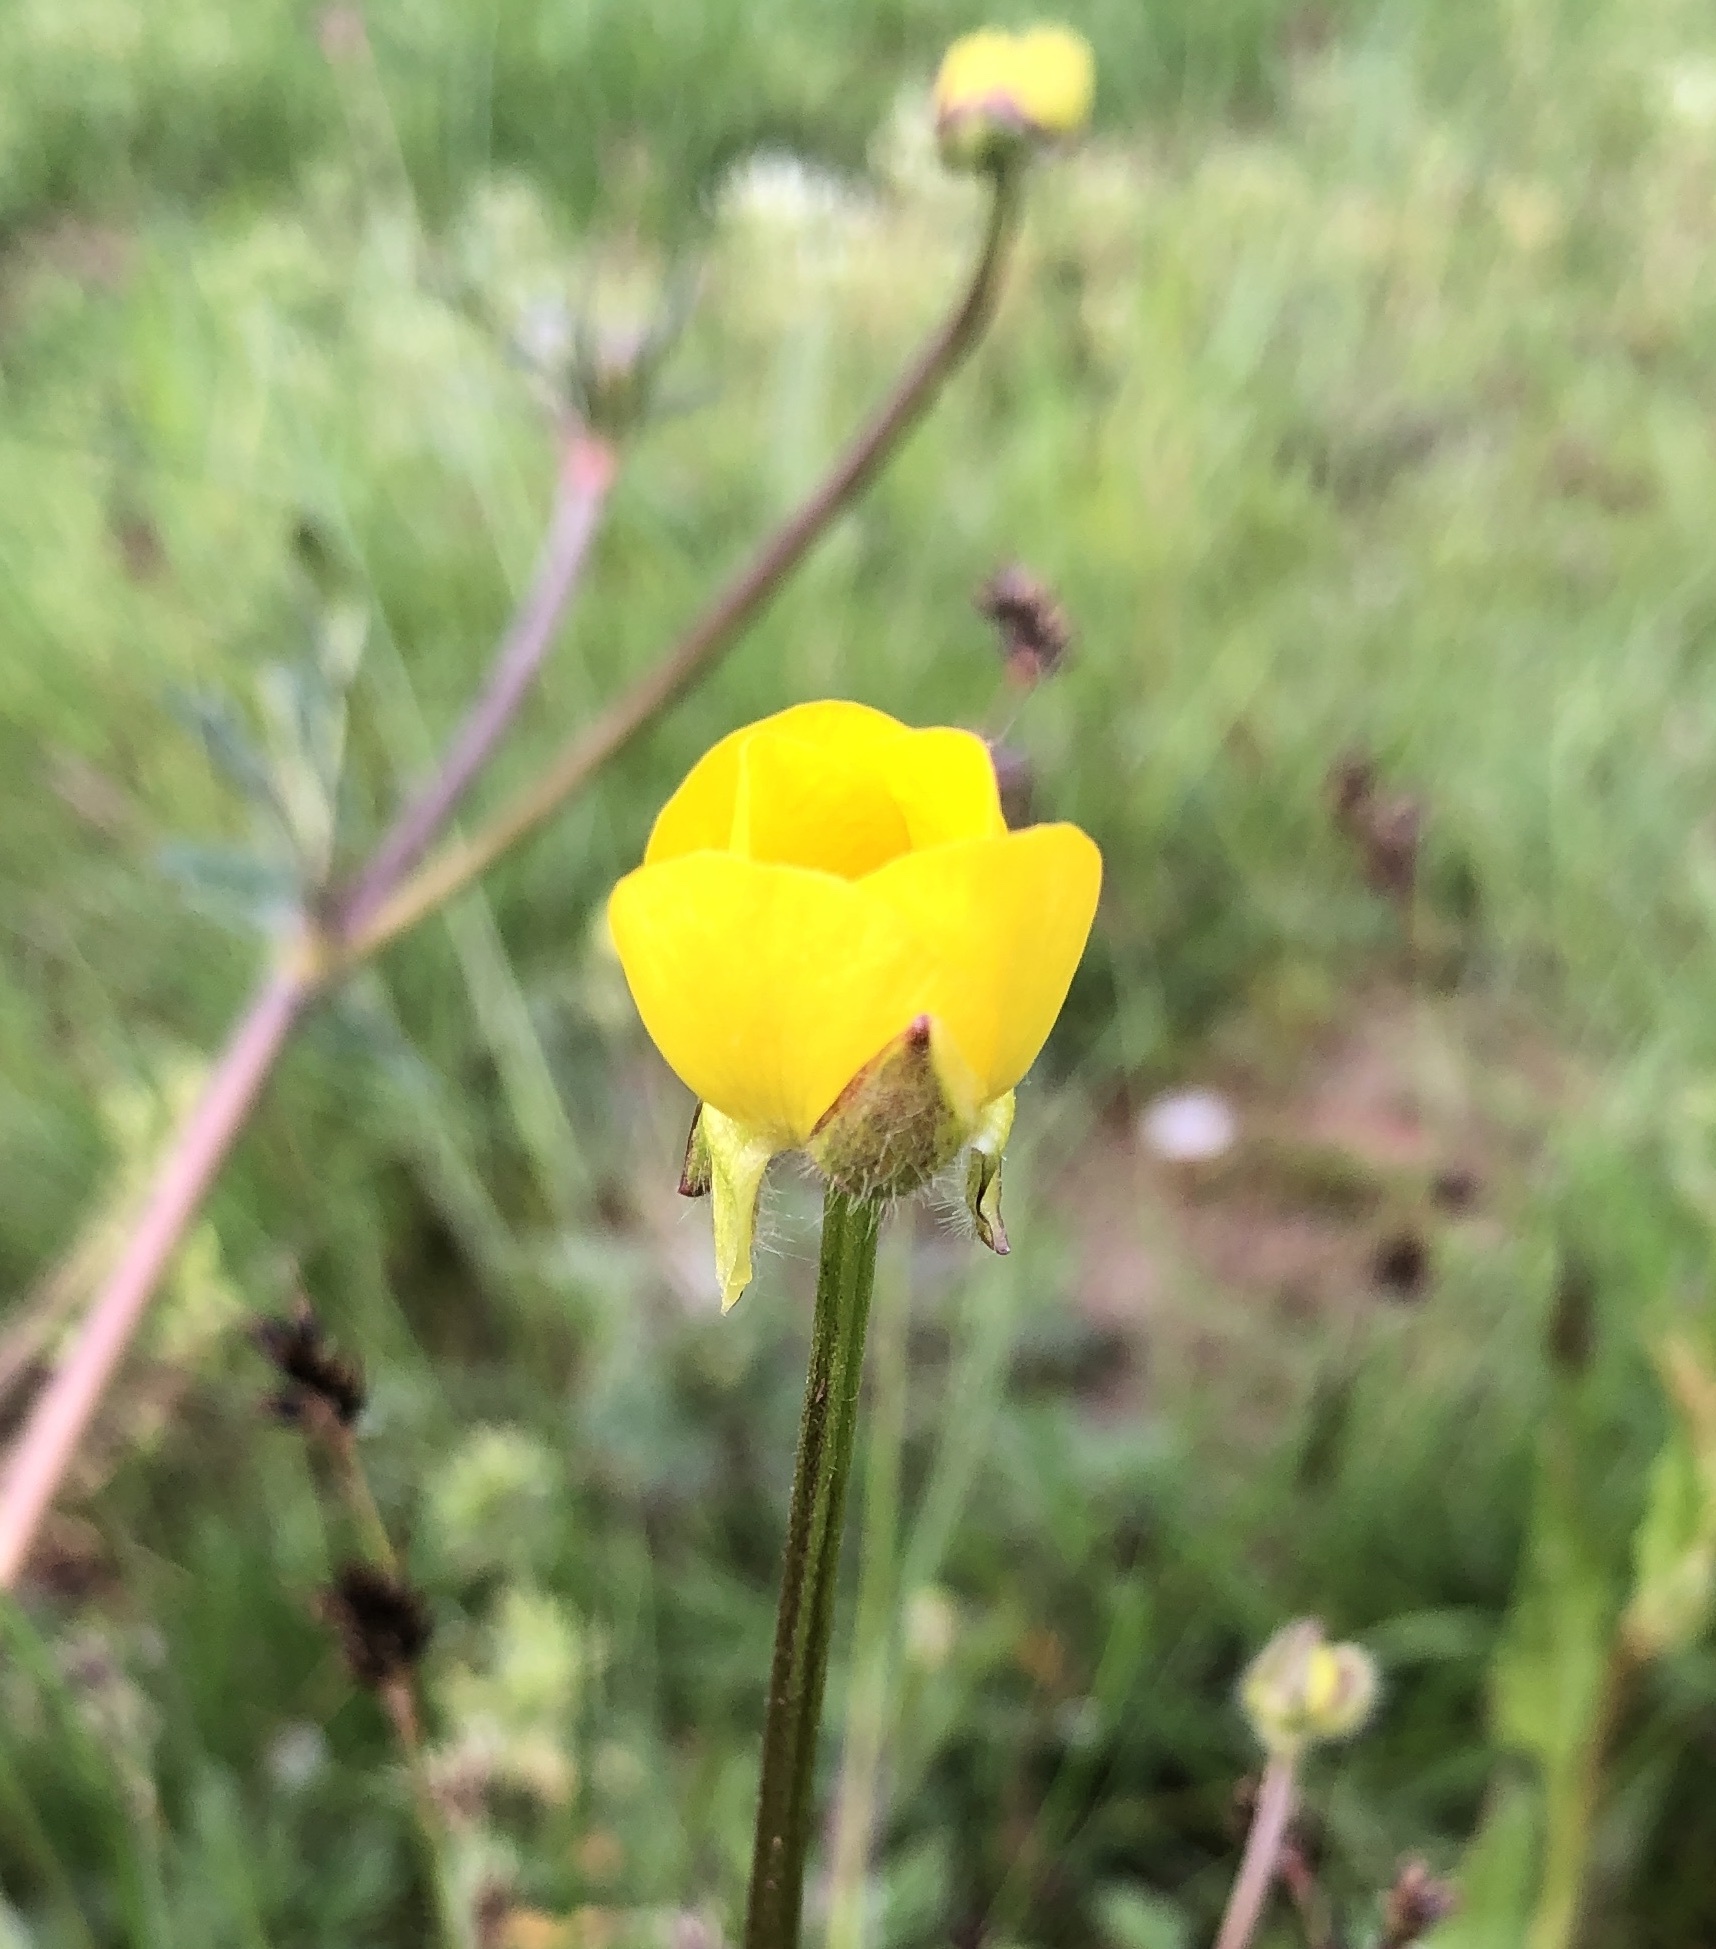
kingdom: Plantae
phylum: Tracheophyta
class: Magnoliopsida
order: Ranunculales
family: Ranunculaceae
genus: Ranunculus
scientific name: Ranunculus bulbosus
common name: Bulbous buttercup
